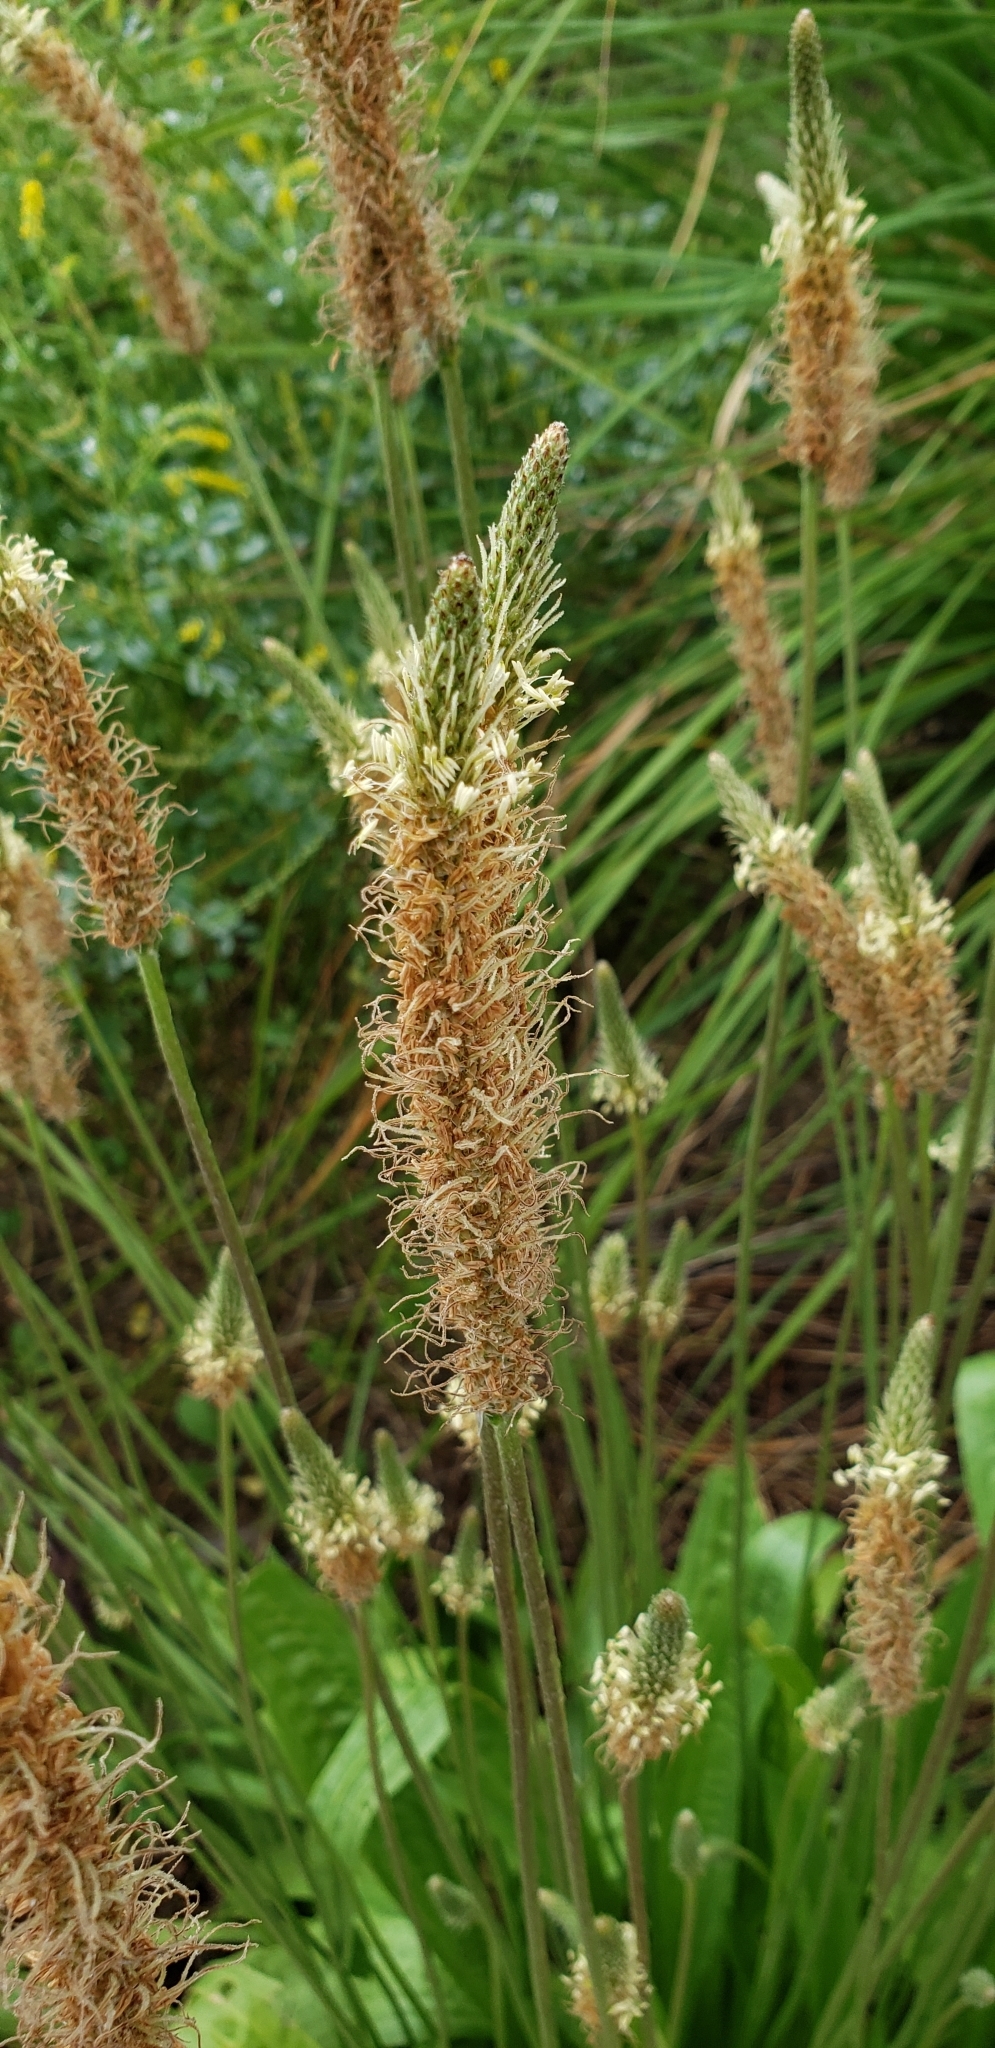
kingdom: Plantae
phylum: Tracheophyta
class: Magnoliopsida
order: Lamiales
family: Plantaginaceae
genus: Plantago
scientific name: Plantago lanceolata
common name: Ribwort plantain
